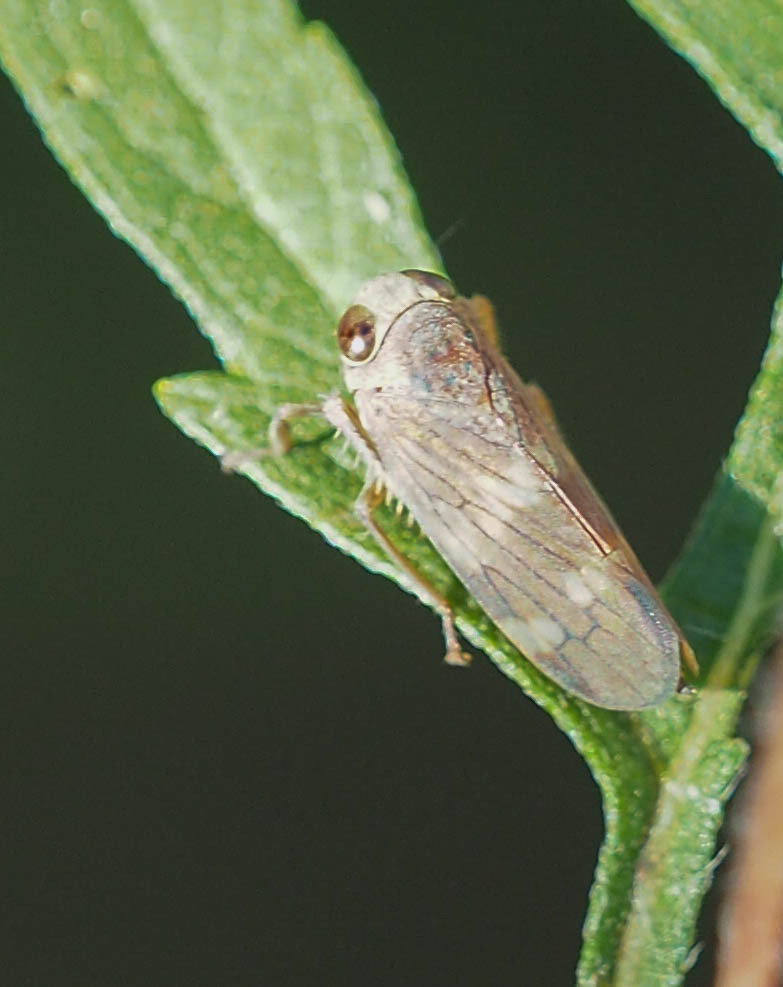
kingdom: Animalia
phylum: Arthropoda
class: Insecta
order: Hemiptera
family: Cicadellidae
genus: Jikradia
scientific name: Jikradia olitoria
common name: Coppery leafhopper
